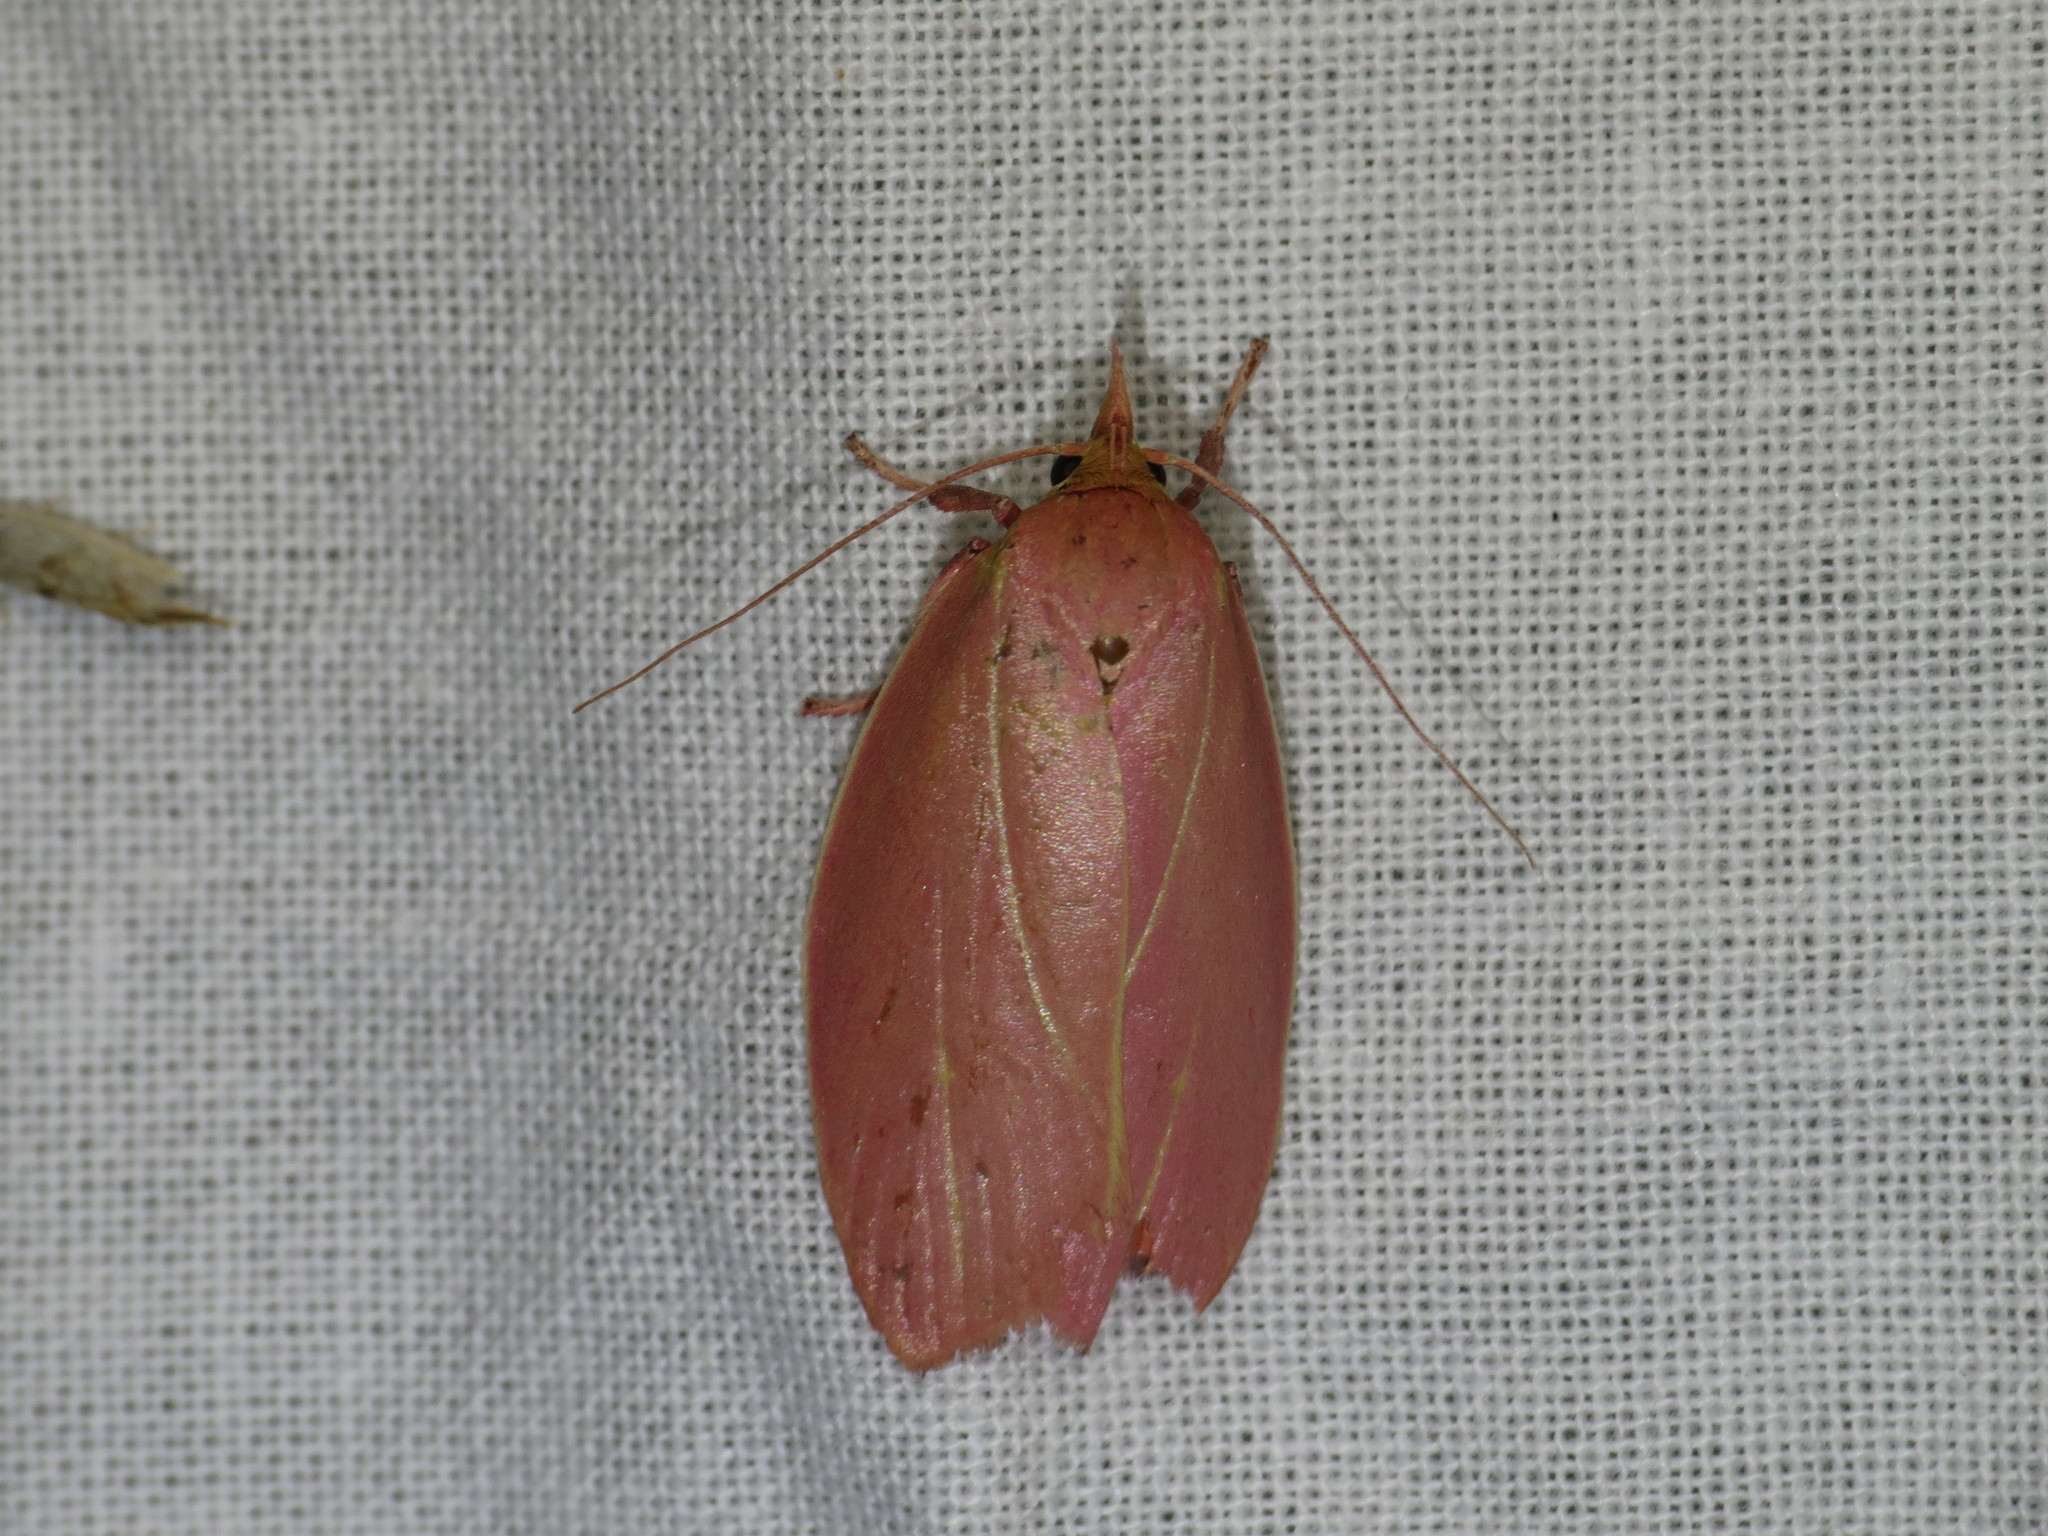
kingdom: Animalia
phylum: Arthropoda
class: Insecta
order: Lepidoptera
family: Oecophoridae
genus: Wingia
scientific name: Wingia lambertella
